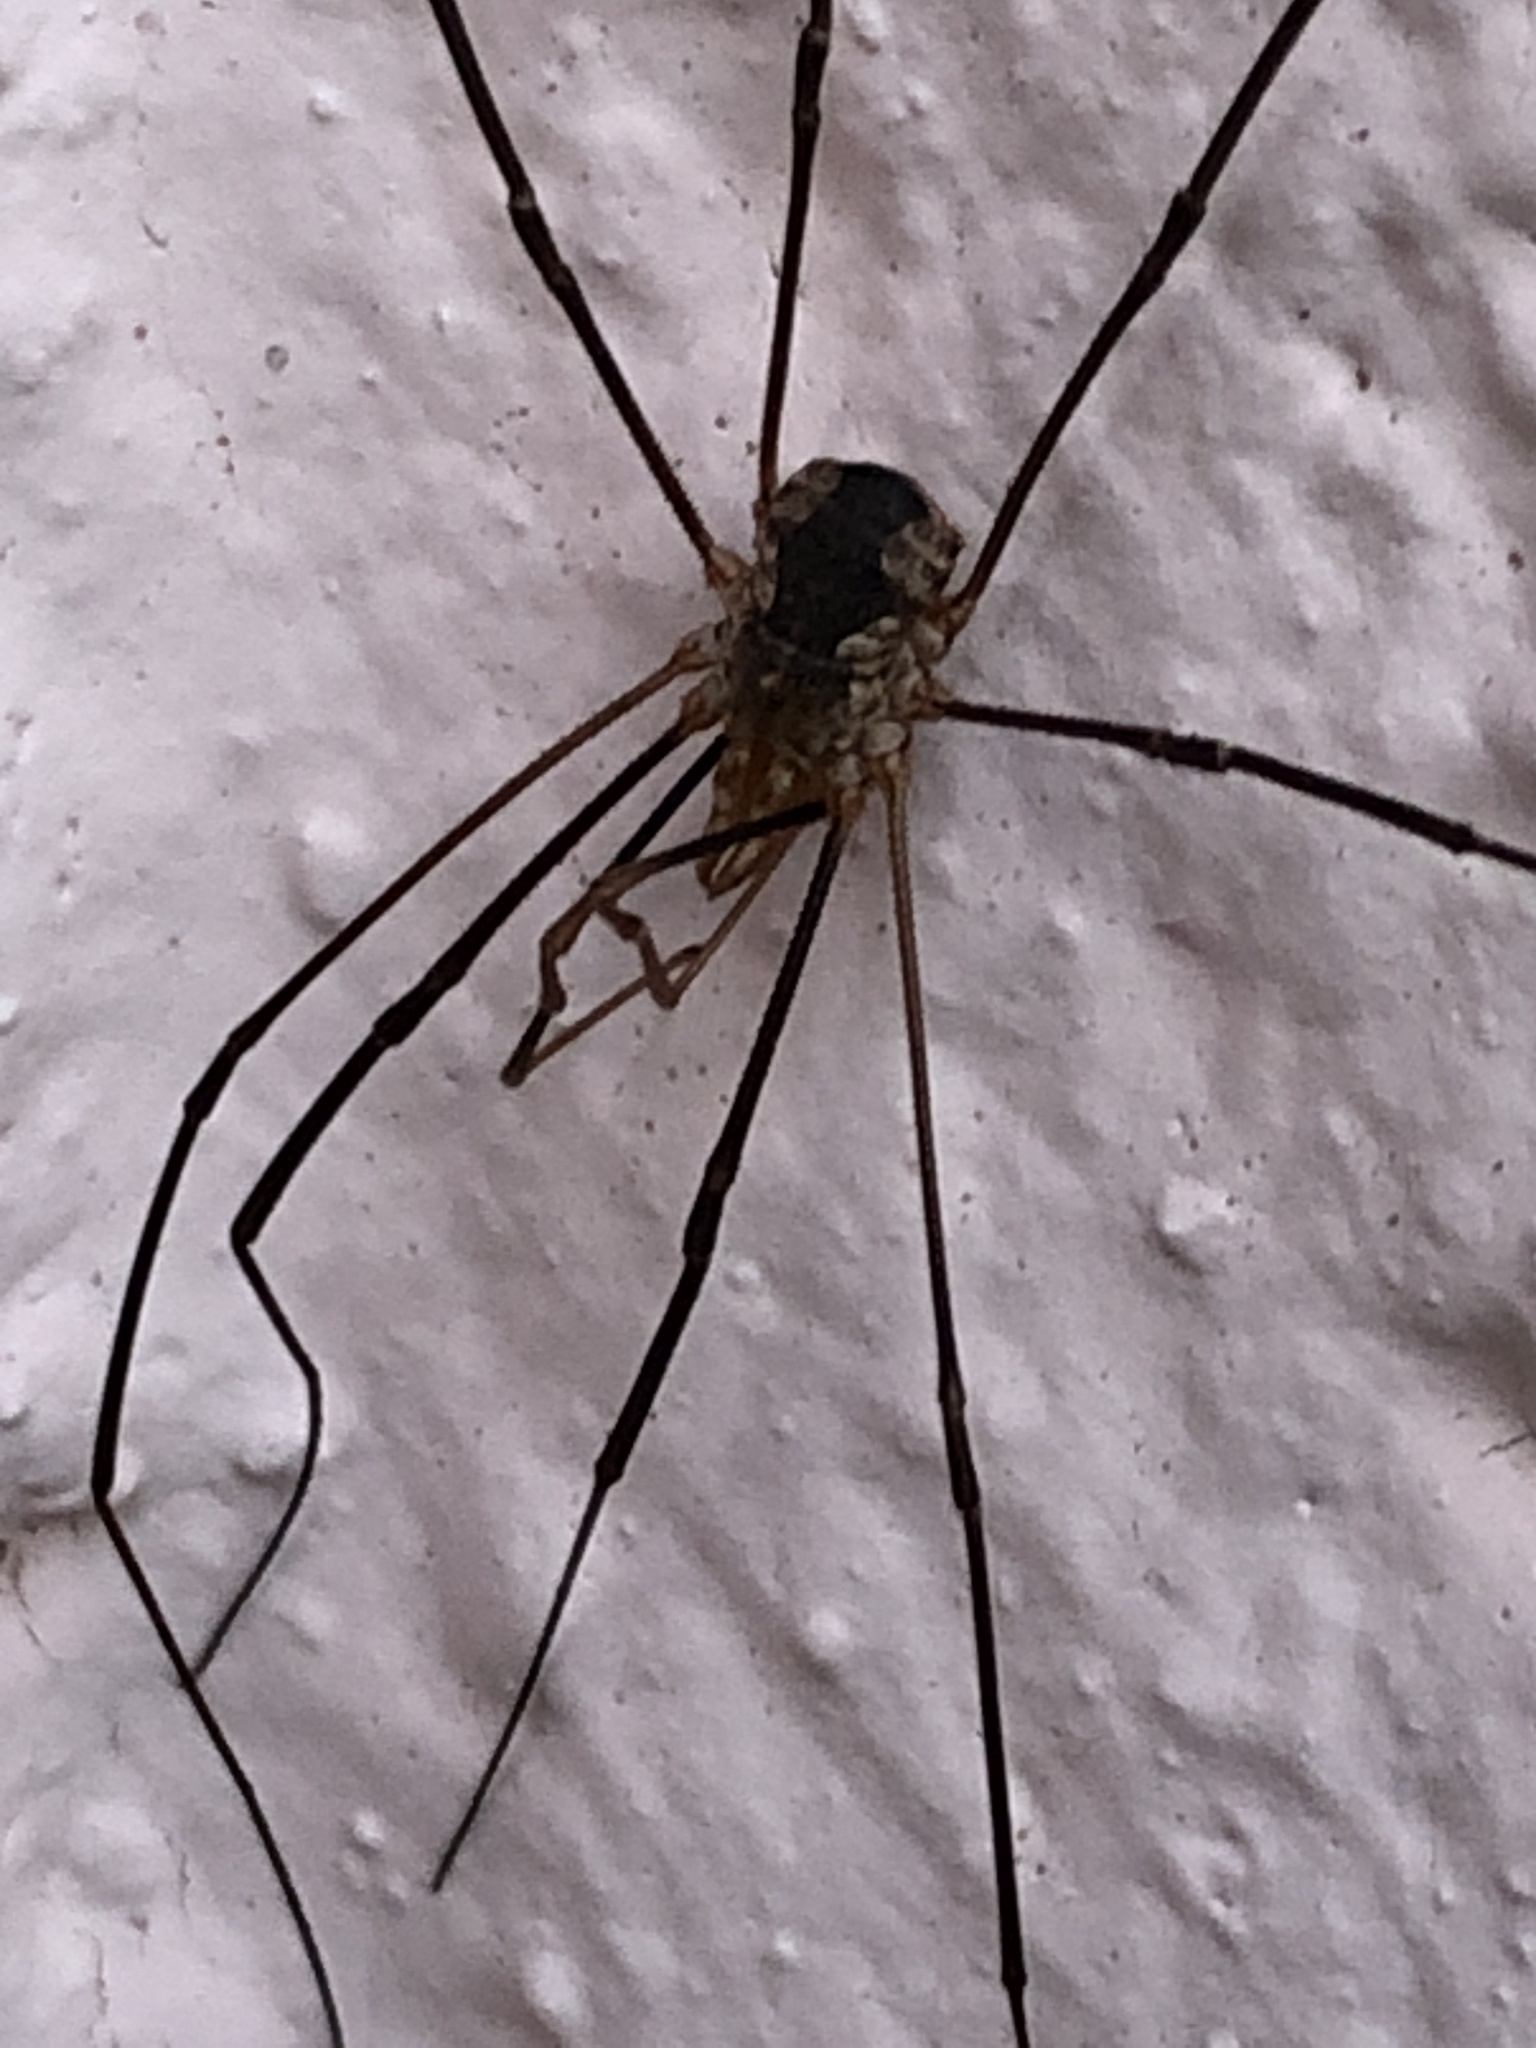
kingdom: Animalia
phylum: Arthropoda
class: Arachnida
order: Opiliones
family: Phalangiidae
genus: Phalangium
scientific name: Phalangium opilio
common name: Daddy longleg
